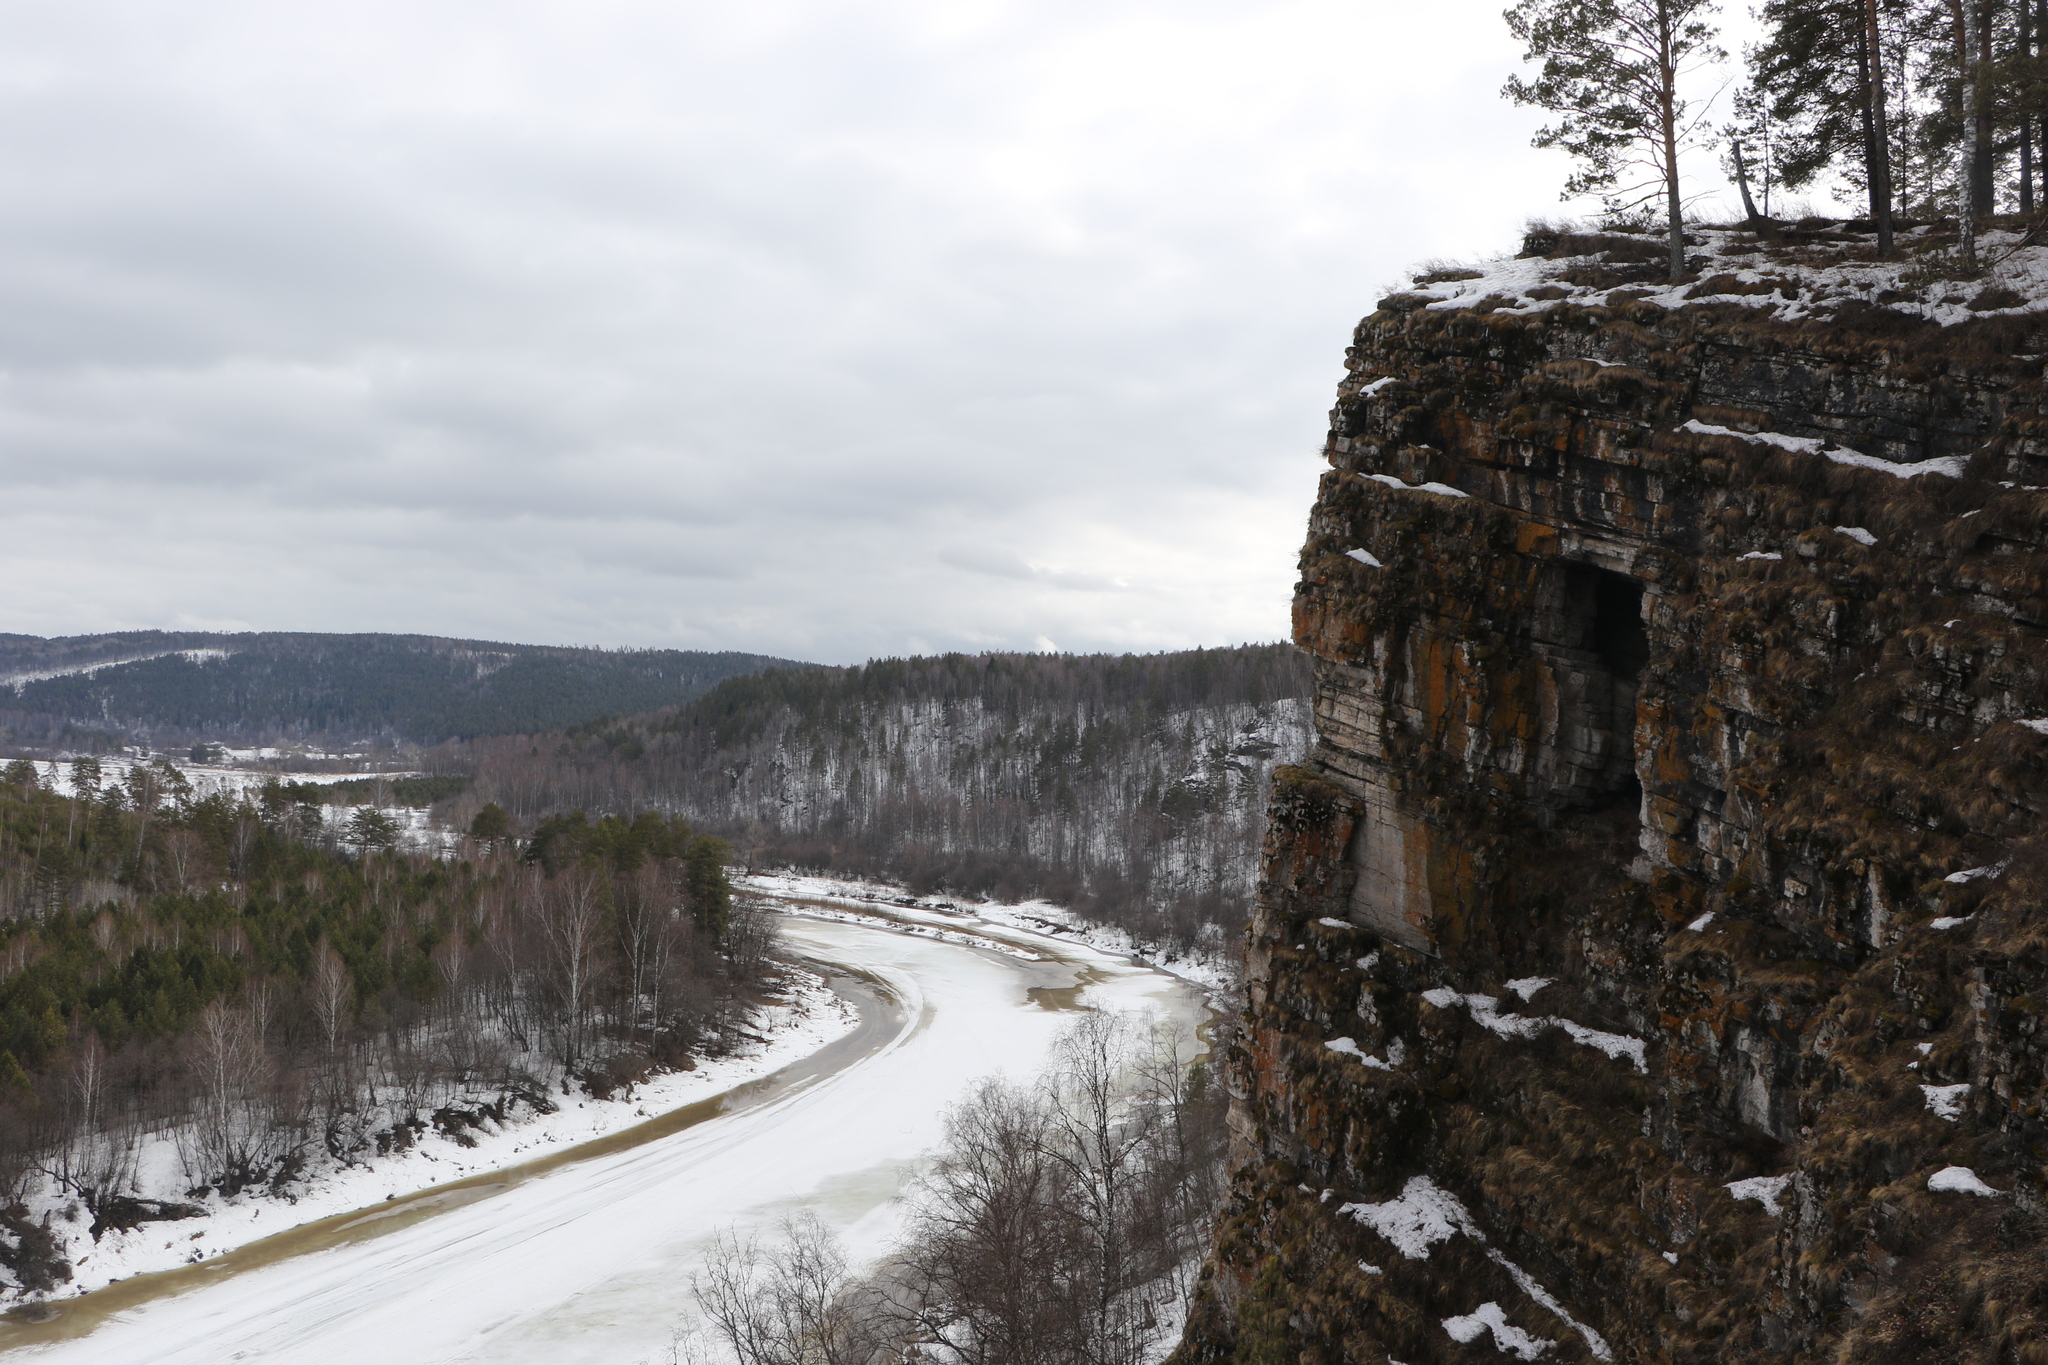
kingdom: Plantae
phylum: Tracheophyta
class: Pinopsida
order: Pinales
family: Pinaceae
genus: Pinus
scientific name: Pinus sylvestris
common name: Scots pine
